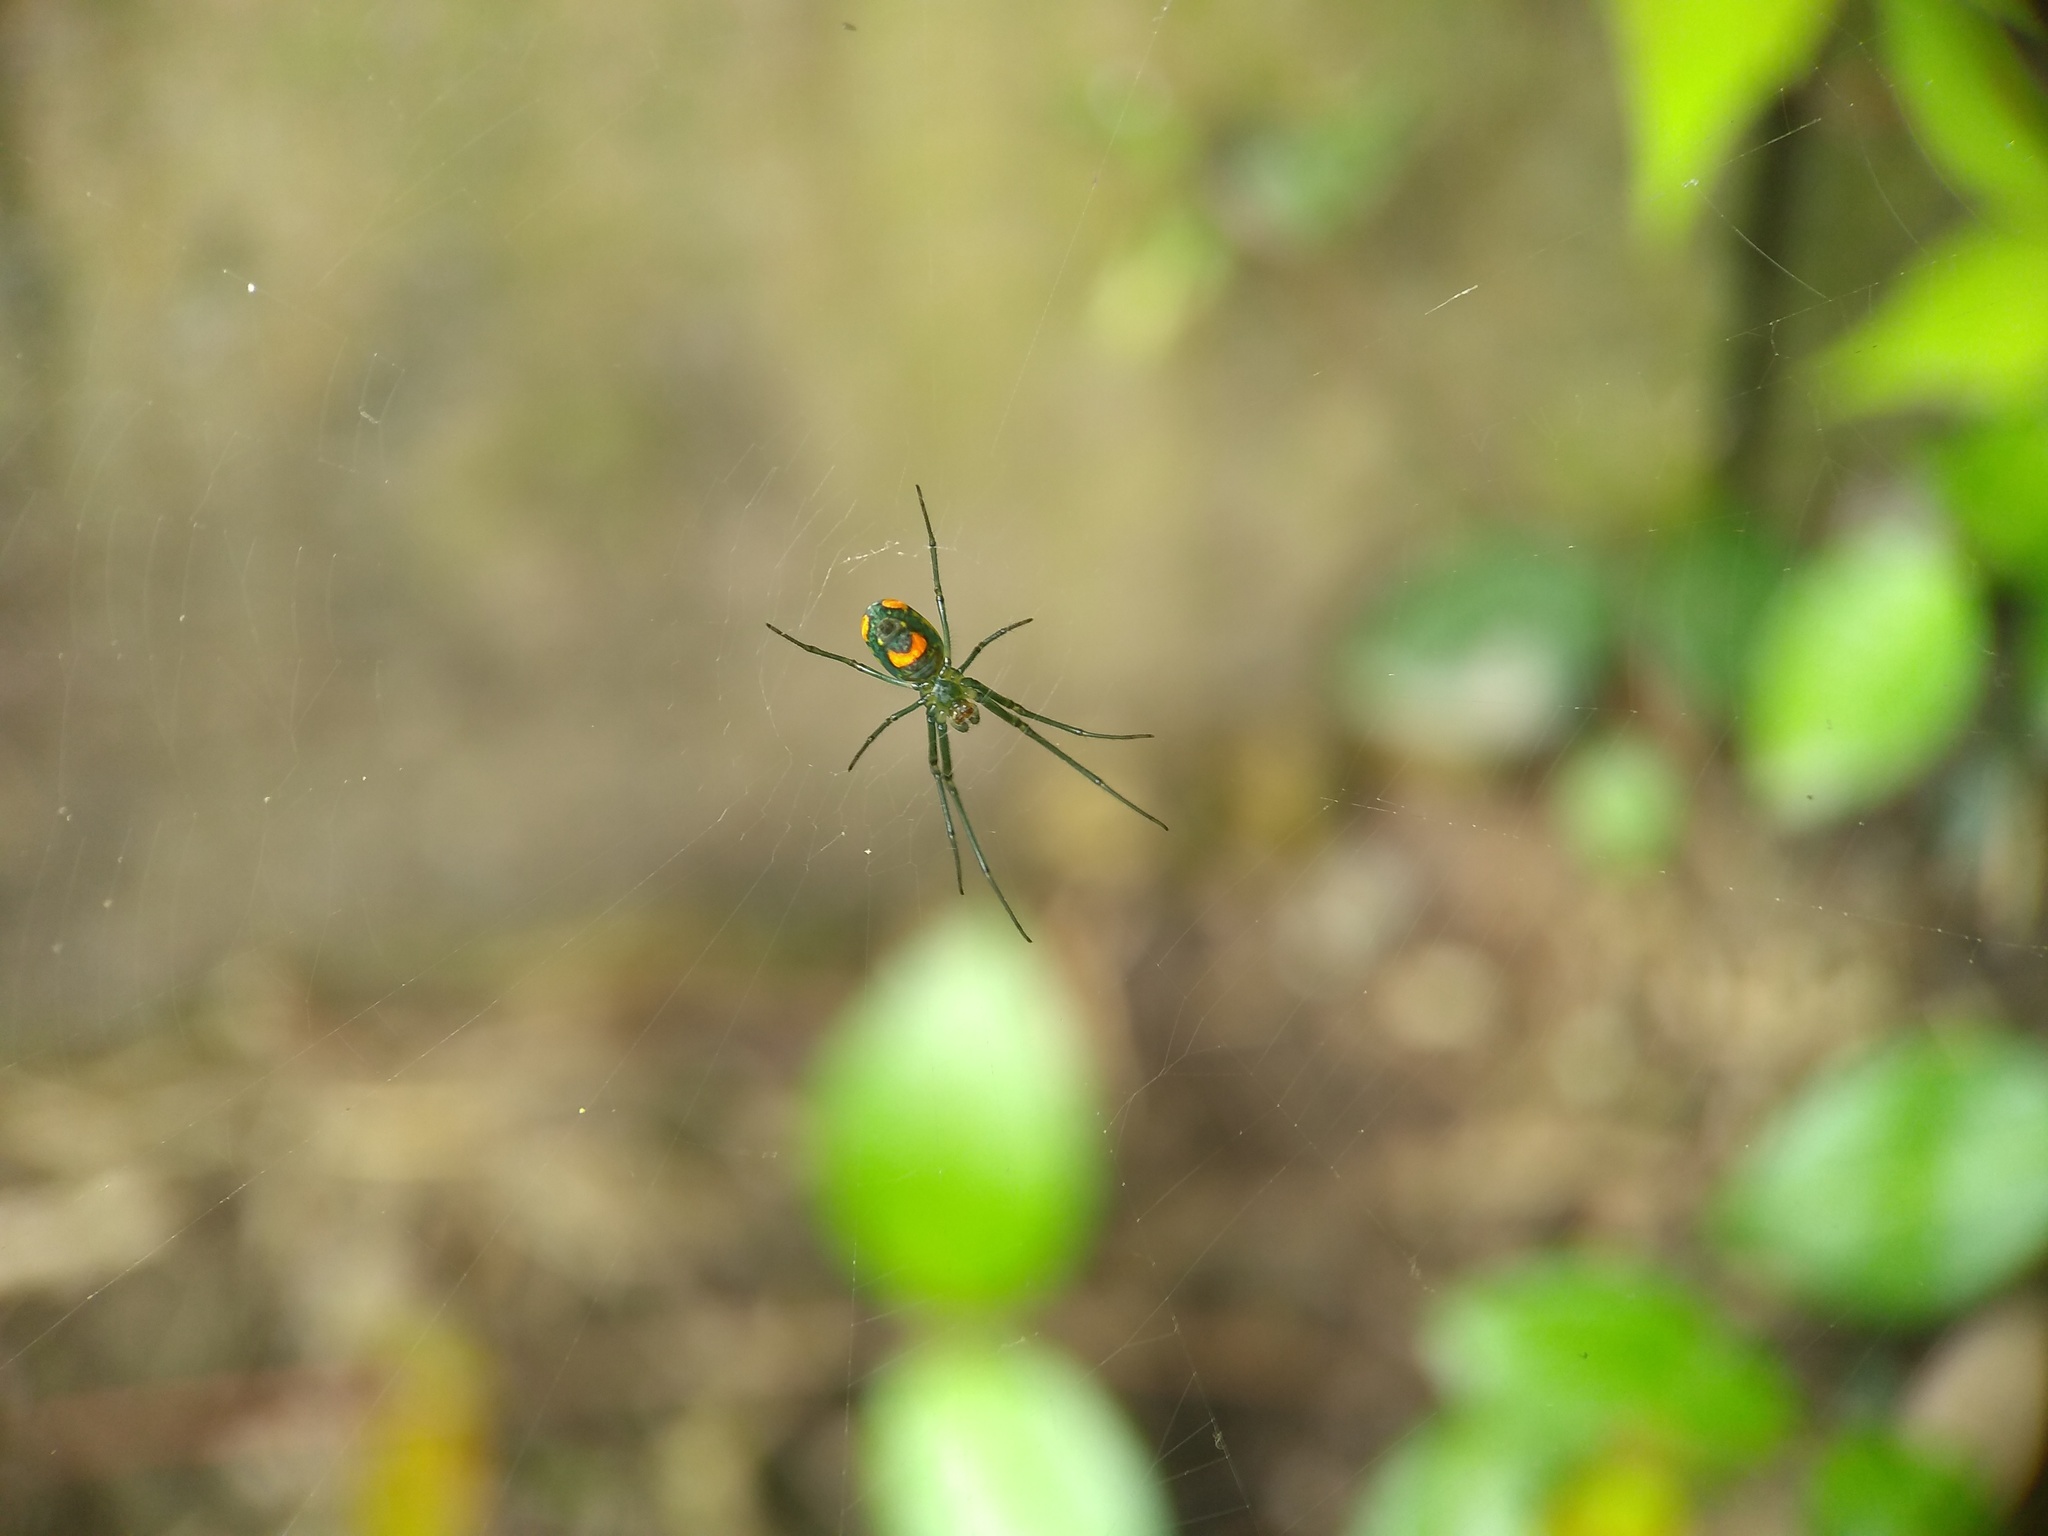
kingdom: Animalia
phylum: Arthropoda
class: Arachnida
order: Araneae
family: Tetragnathidae
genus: Leucauge
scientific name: Leucauge argyrobapta
